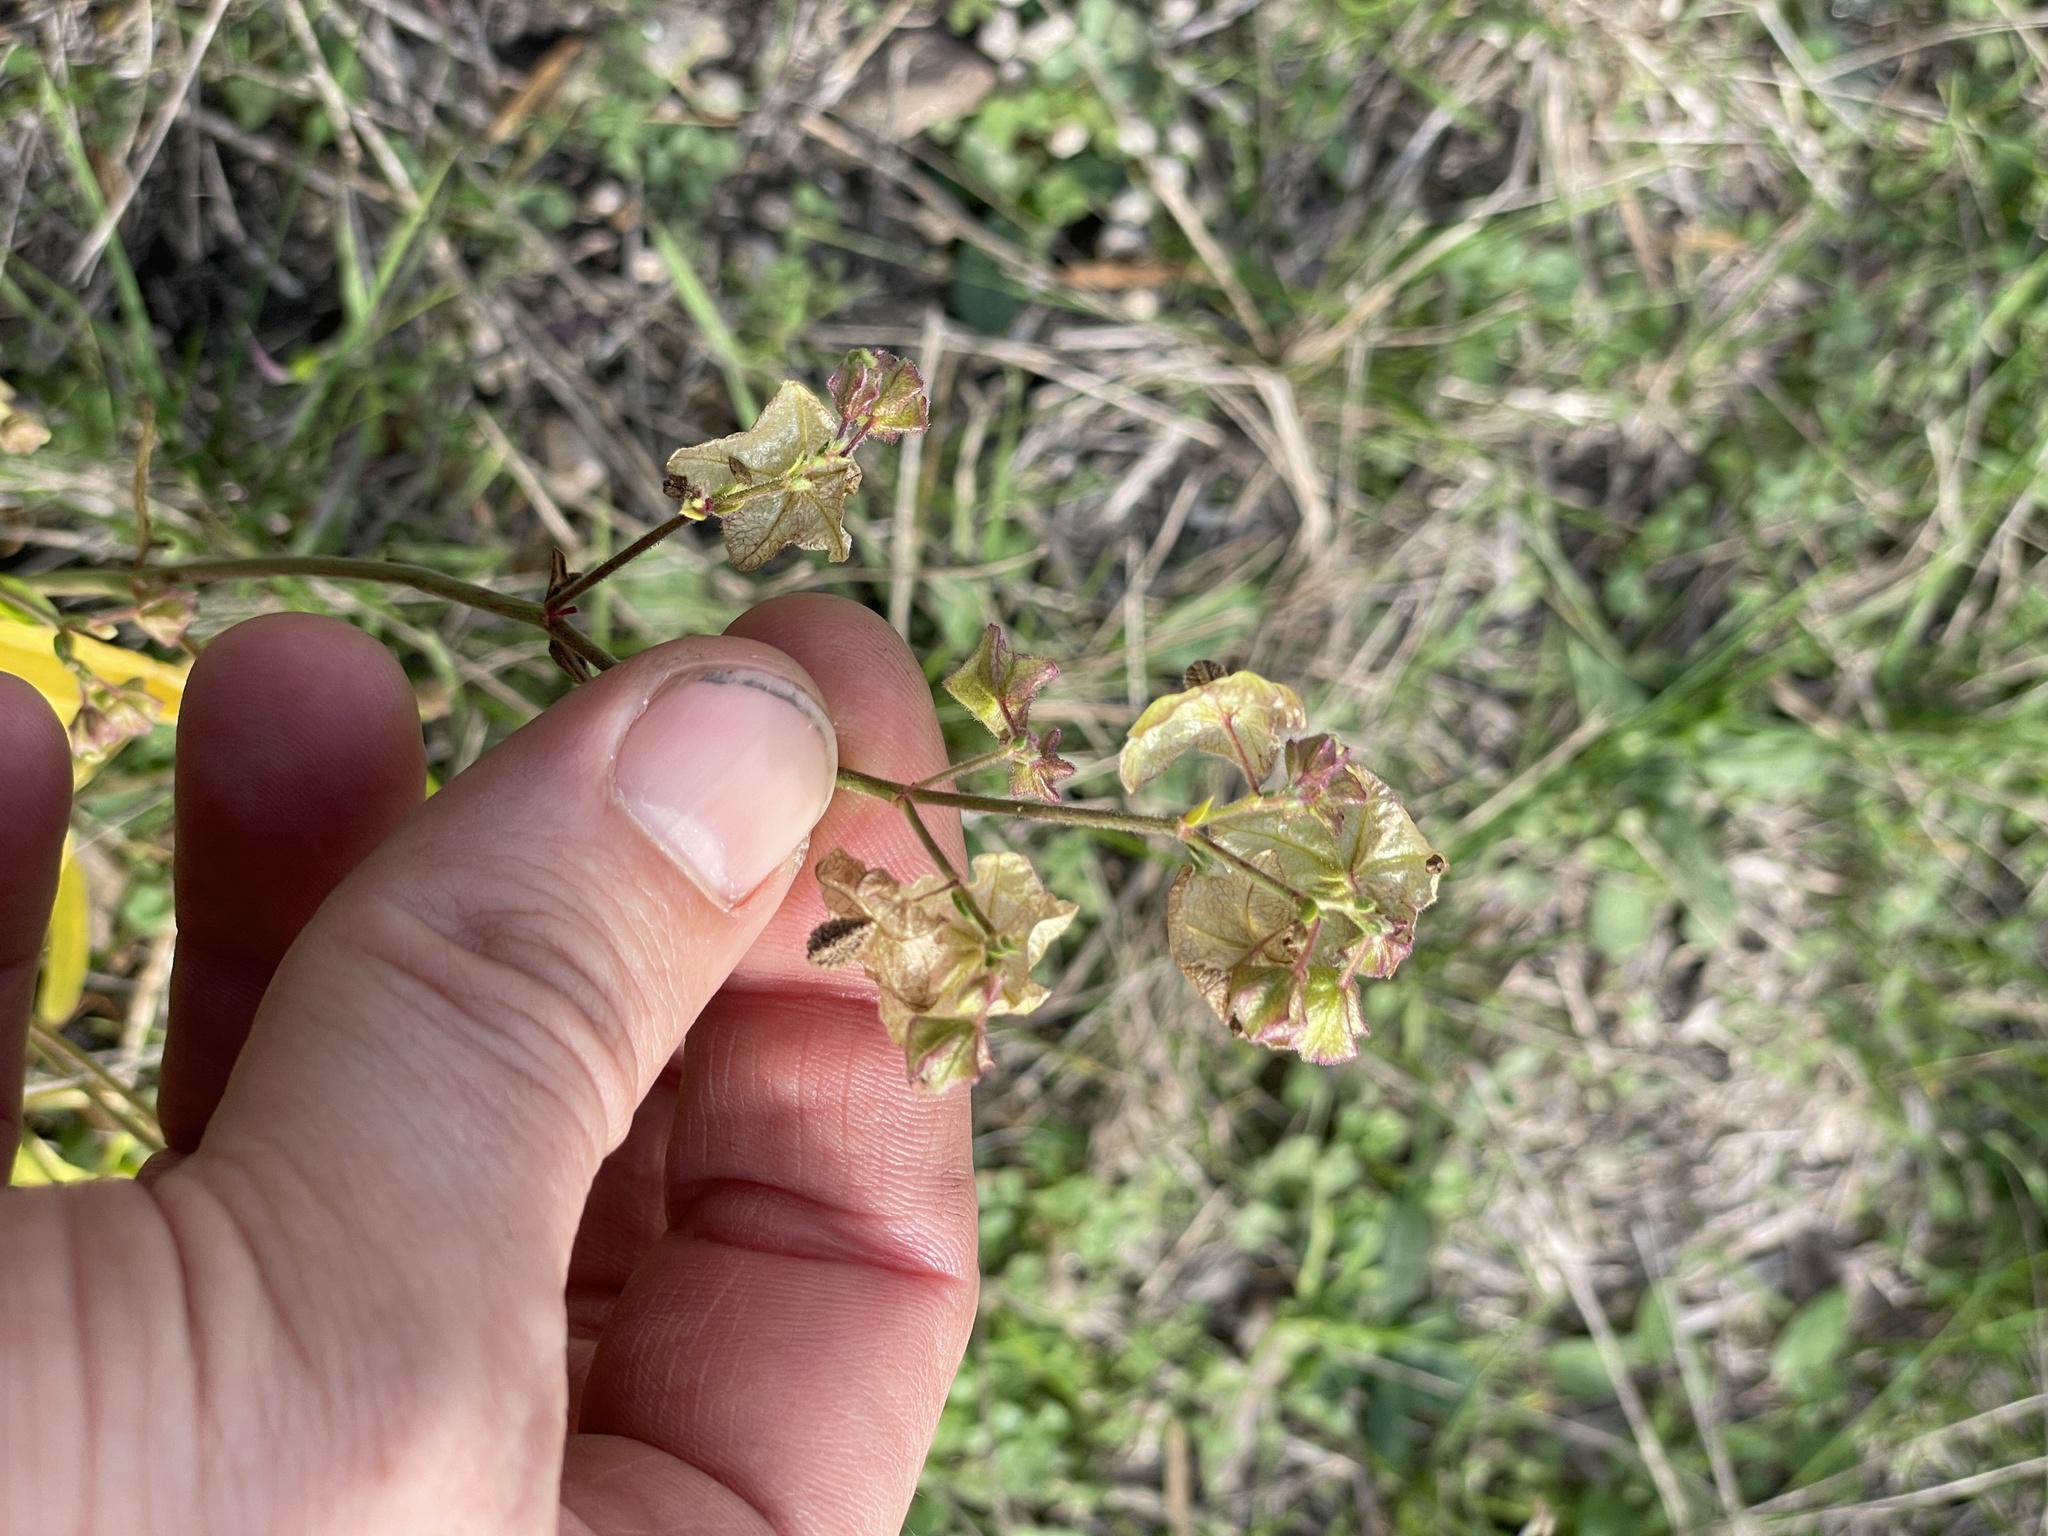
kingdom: Plantae
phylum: Tracheophyta
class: Magnoliopsida
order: Caryophyllales
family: Nyctaginaceae
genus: Mirabilis
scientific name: Mirabilis albida
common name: Hairy four-o'clock
